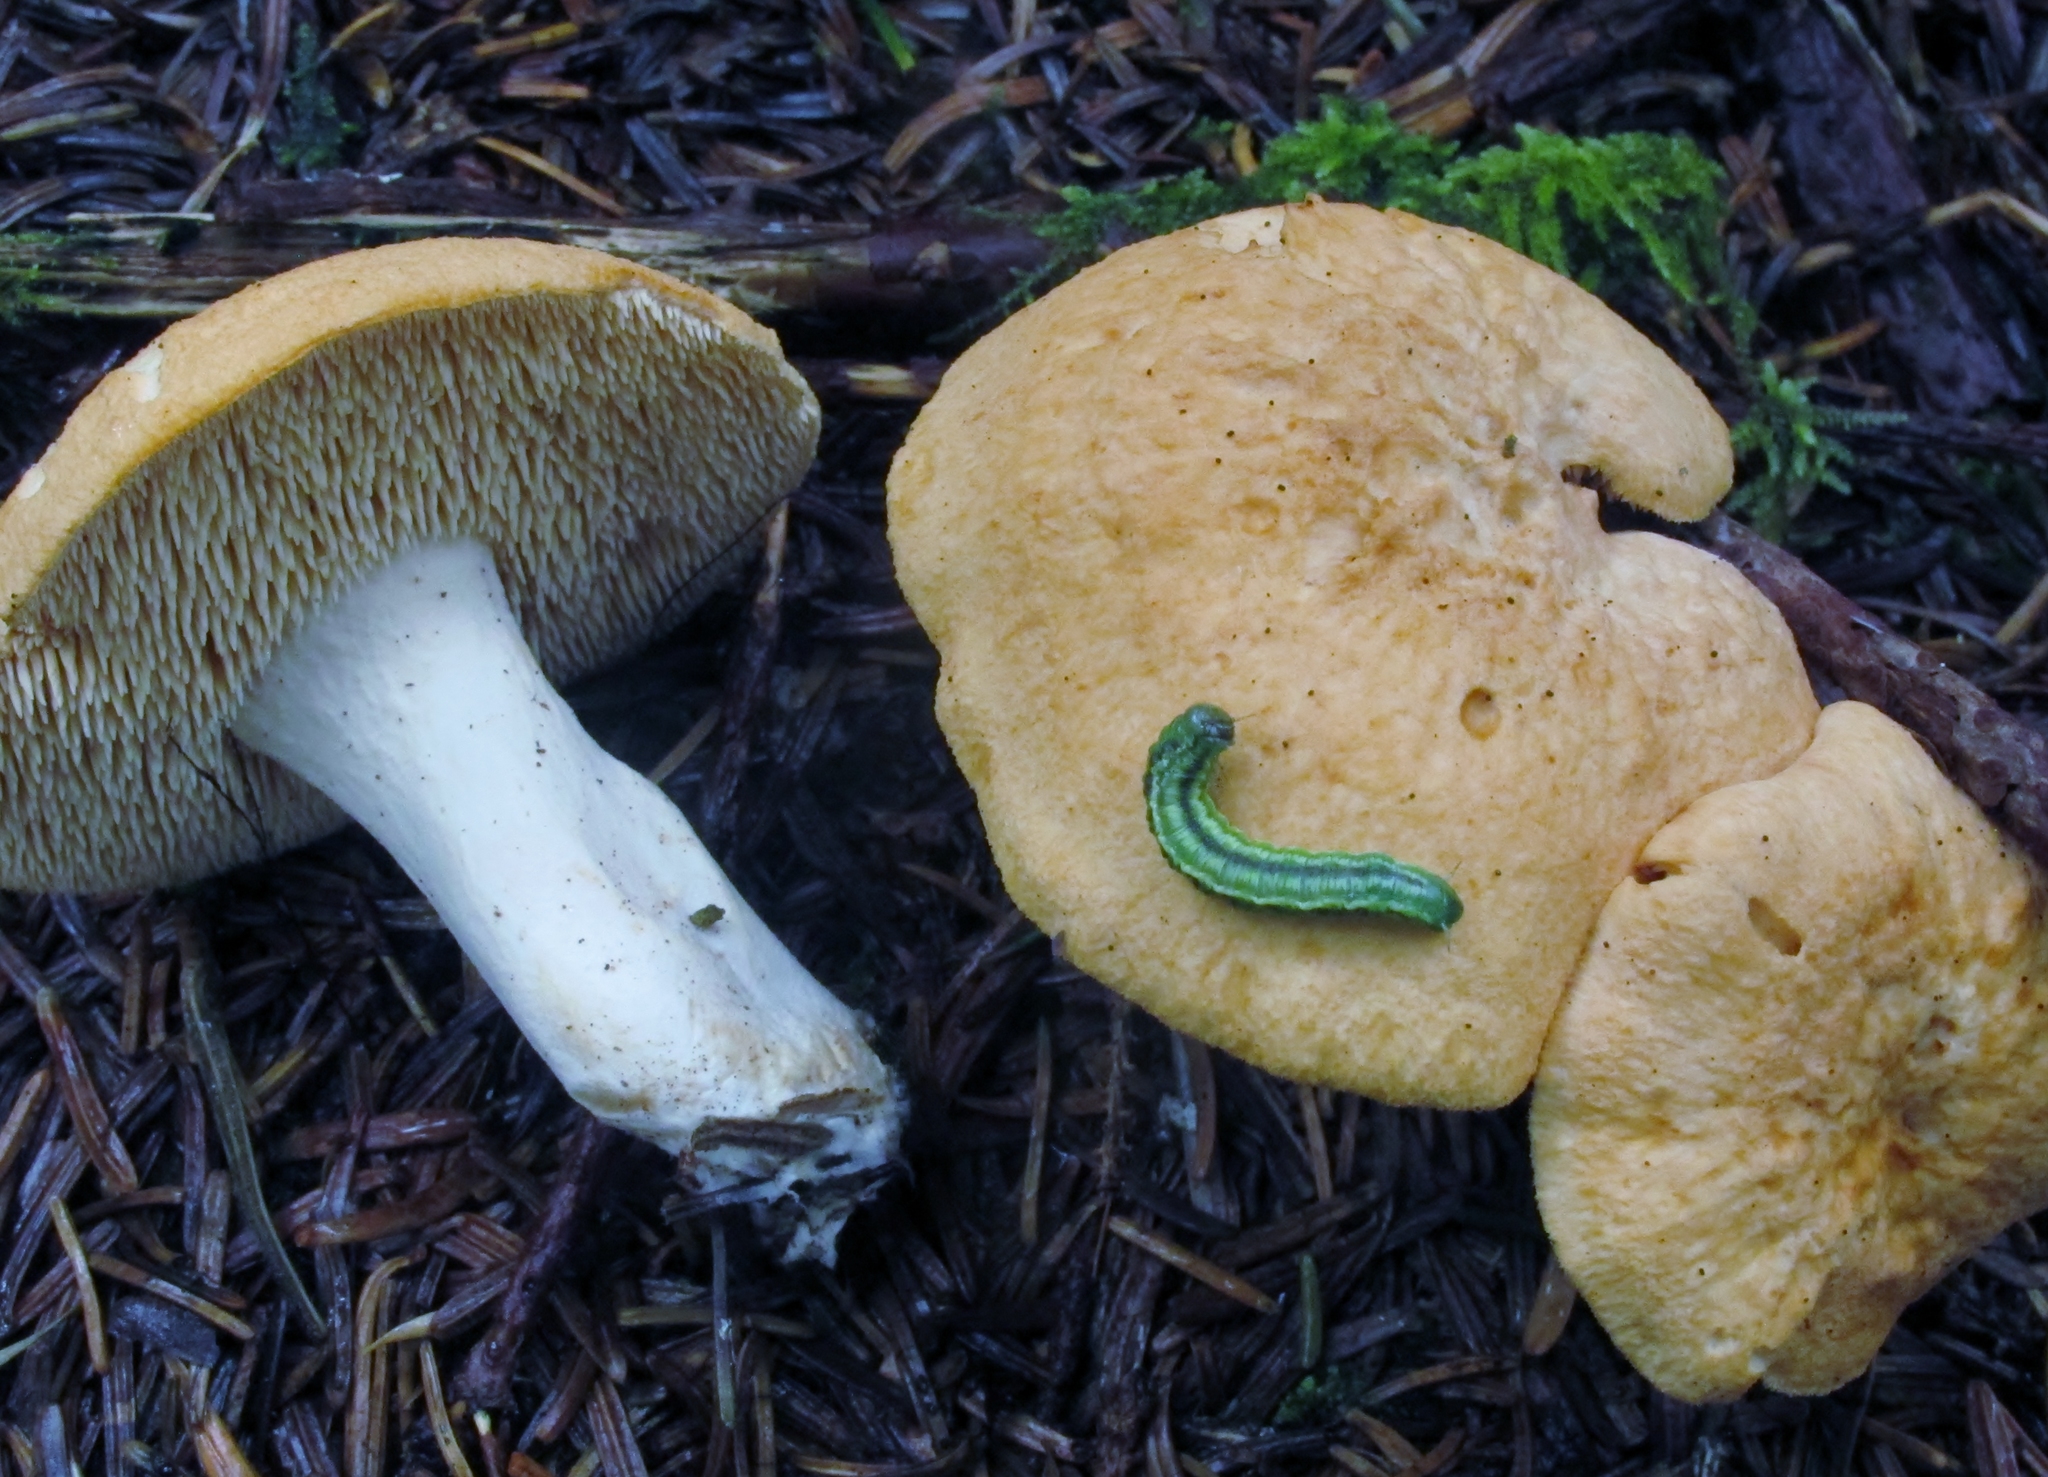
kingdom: Fungi
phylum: Basidiomycota
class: Agaricomycetes
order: Cantharellales
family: Hydnaceae
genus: Hydnum
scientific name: Hydnum umbilicatum
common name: Umbilicate hedgehog
